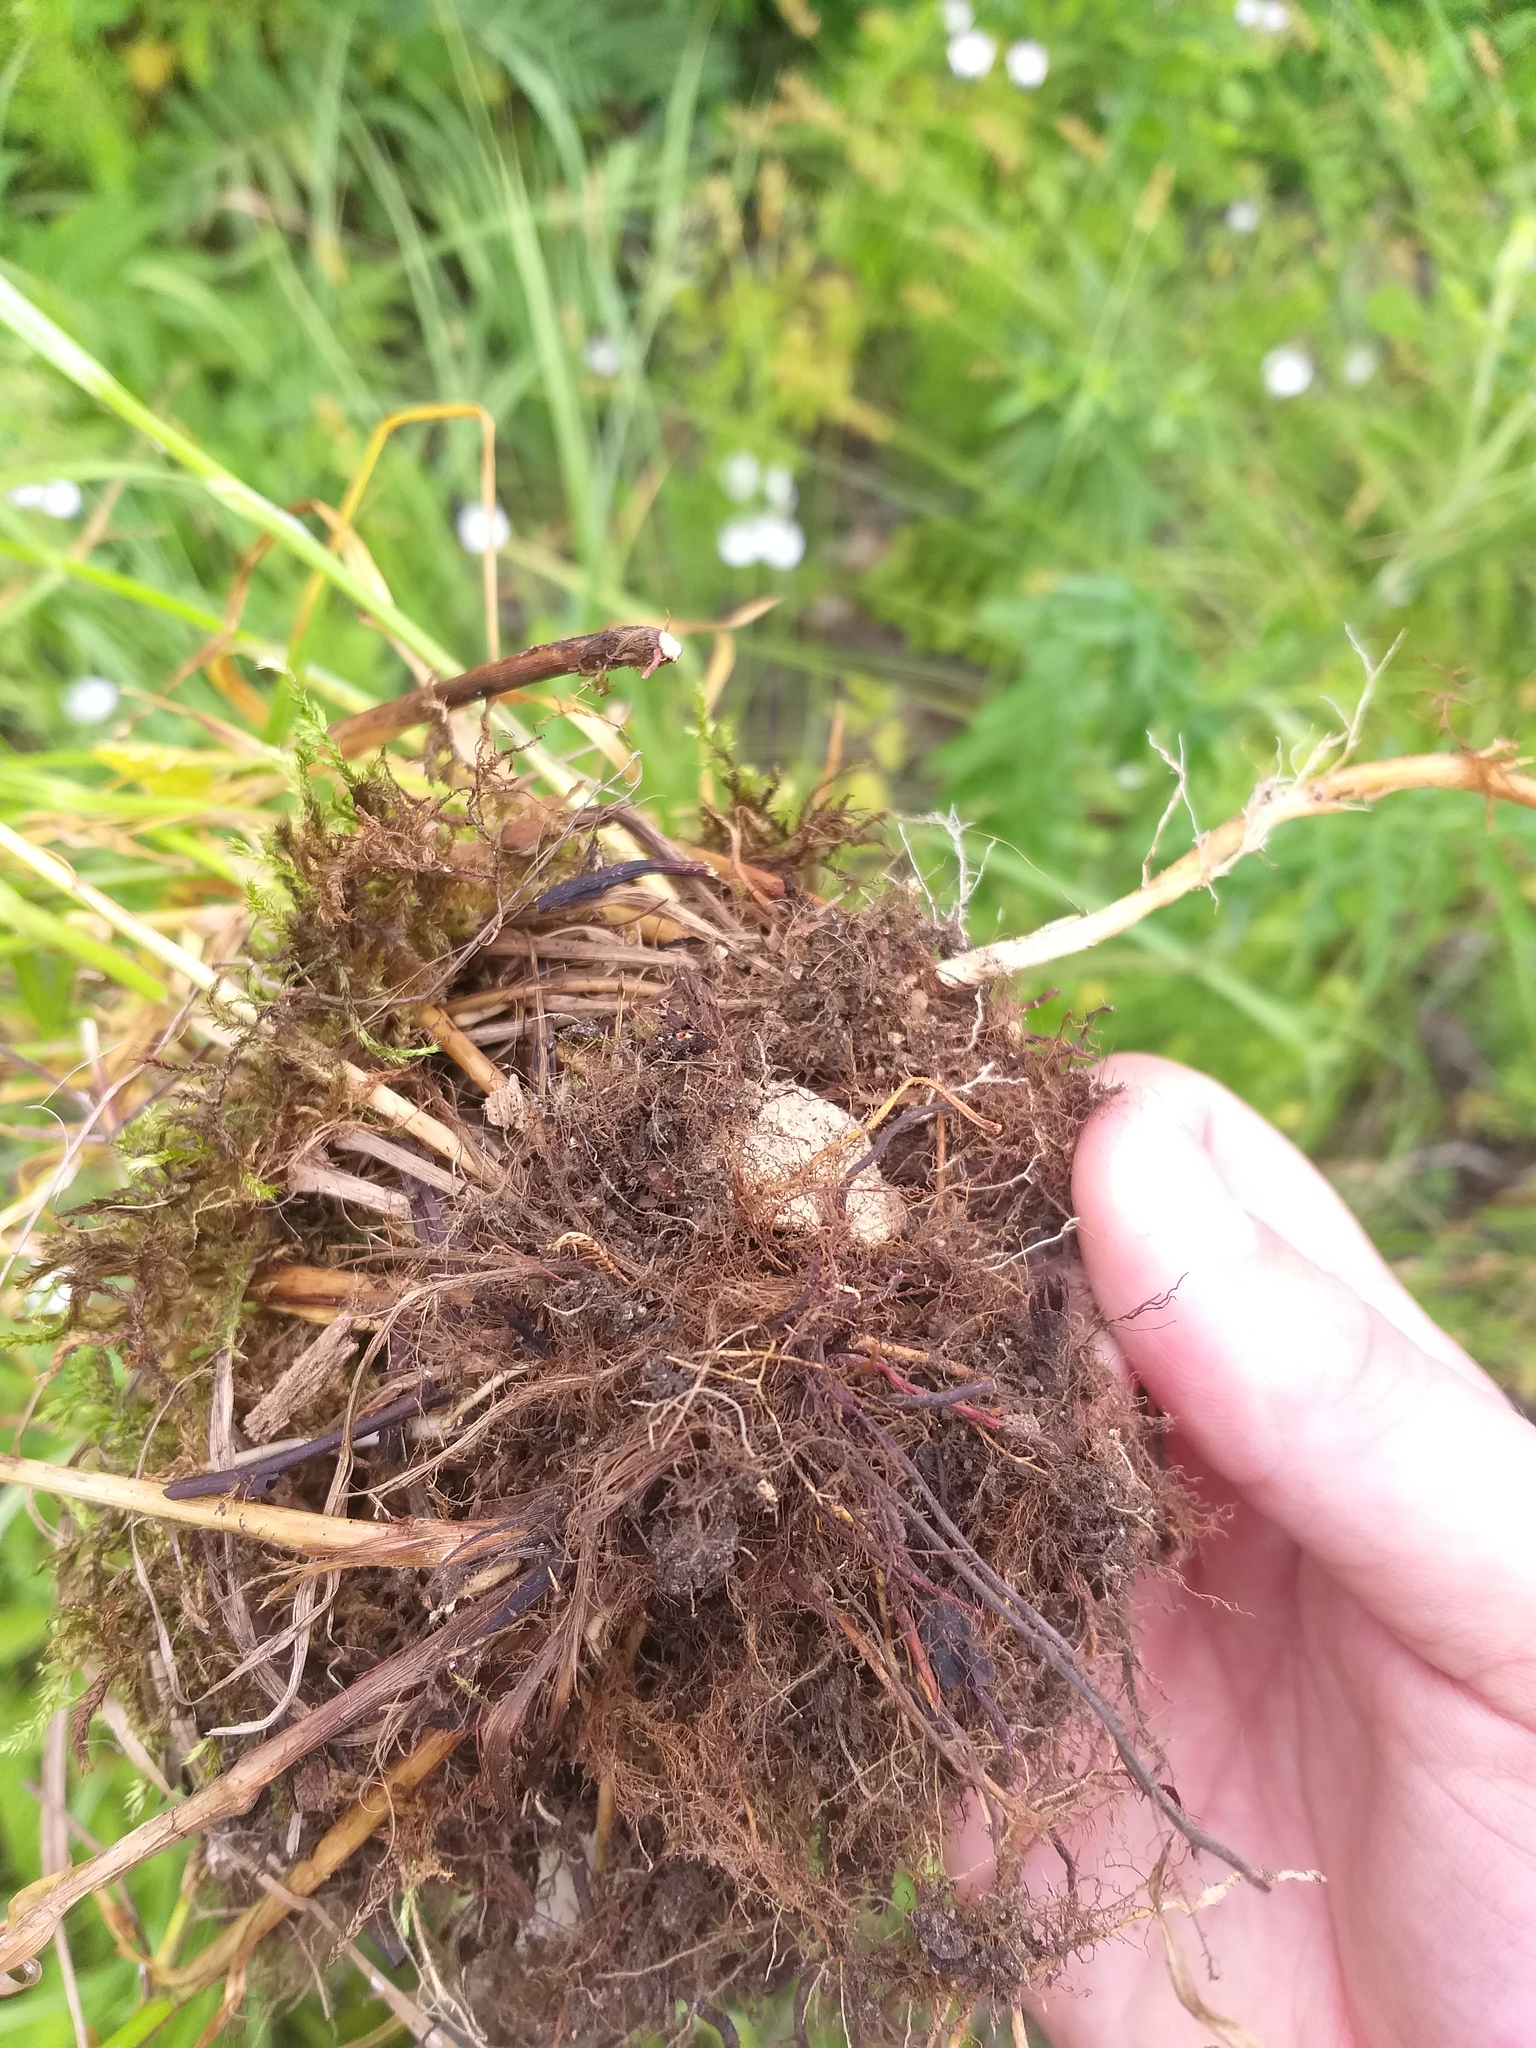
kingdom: Plantae
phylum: Tracheophyta
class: Liliopsida
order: Poales
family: Cyperaceae
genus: Carex
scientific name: Carex spicata
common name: Spiked sedge
